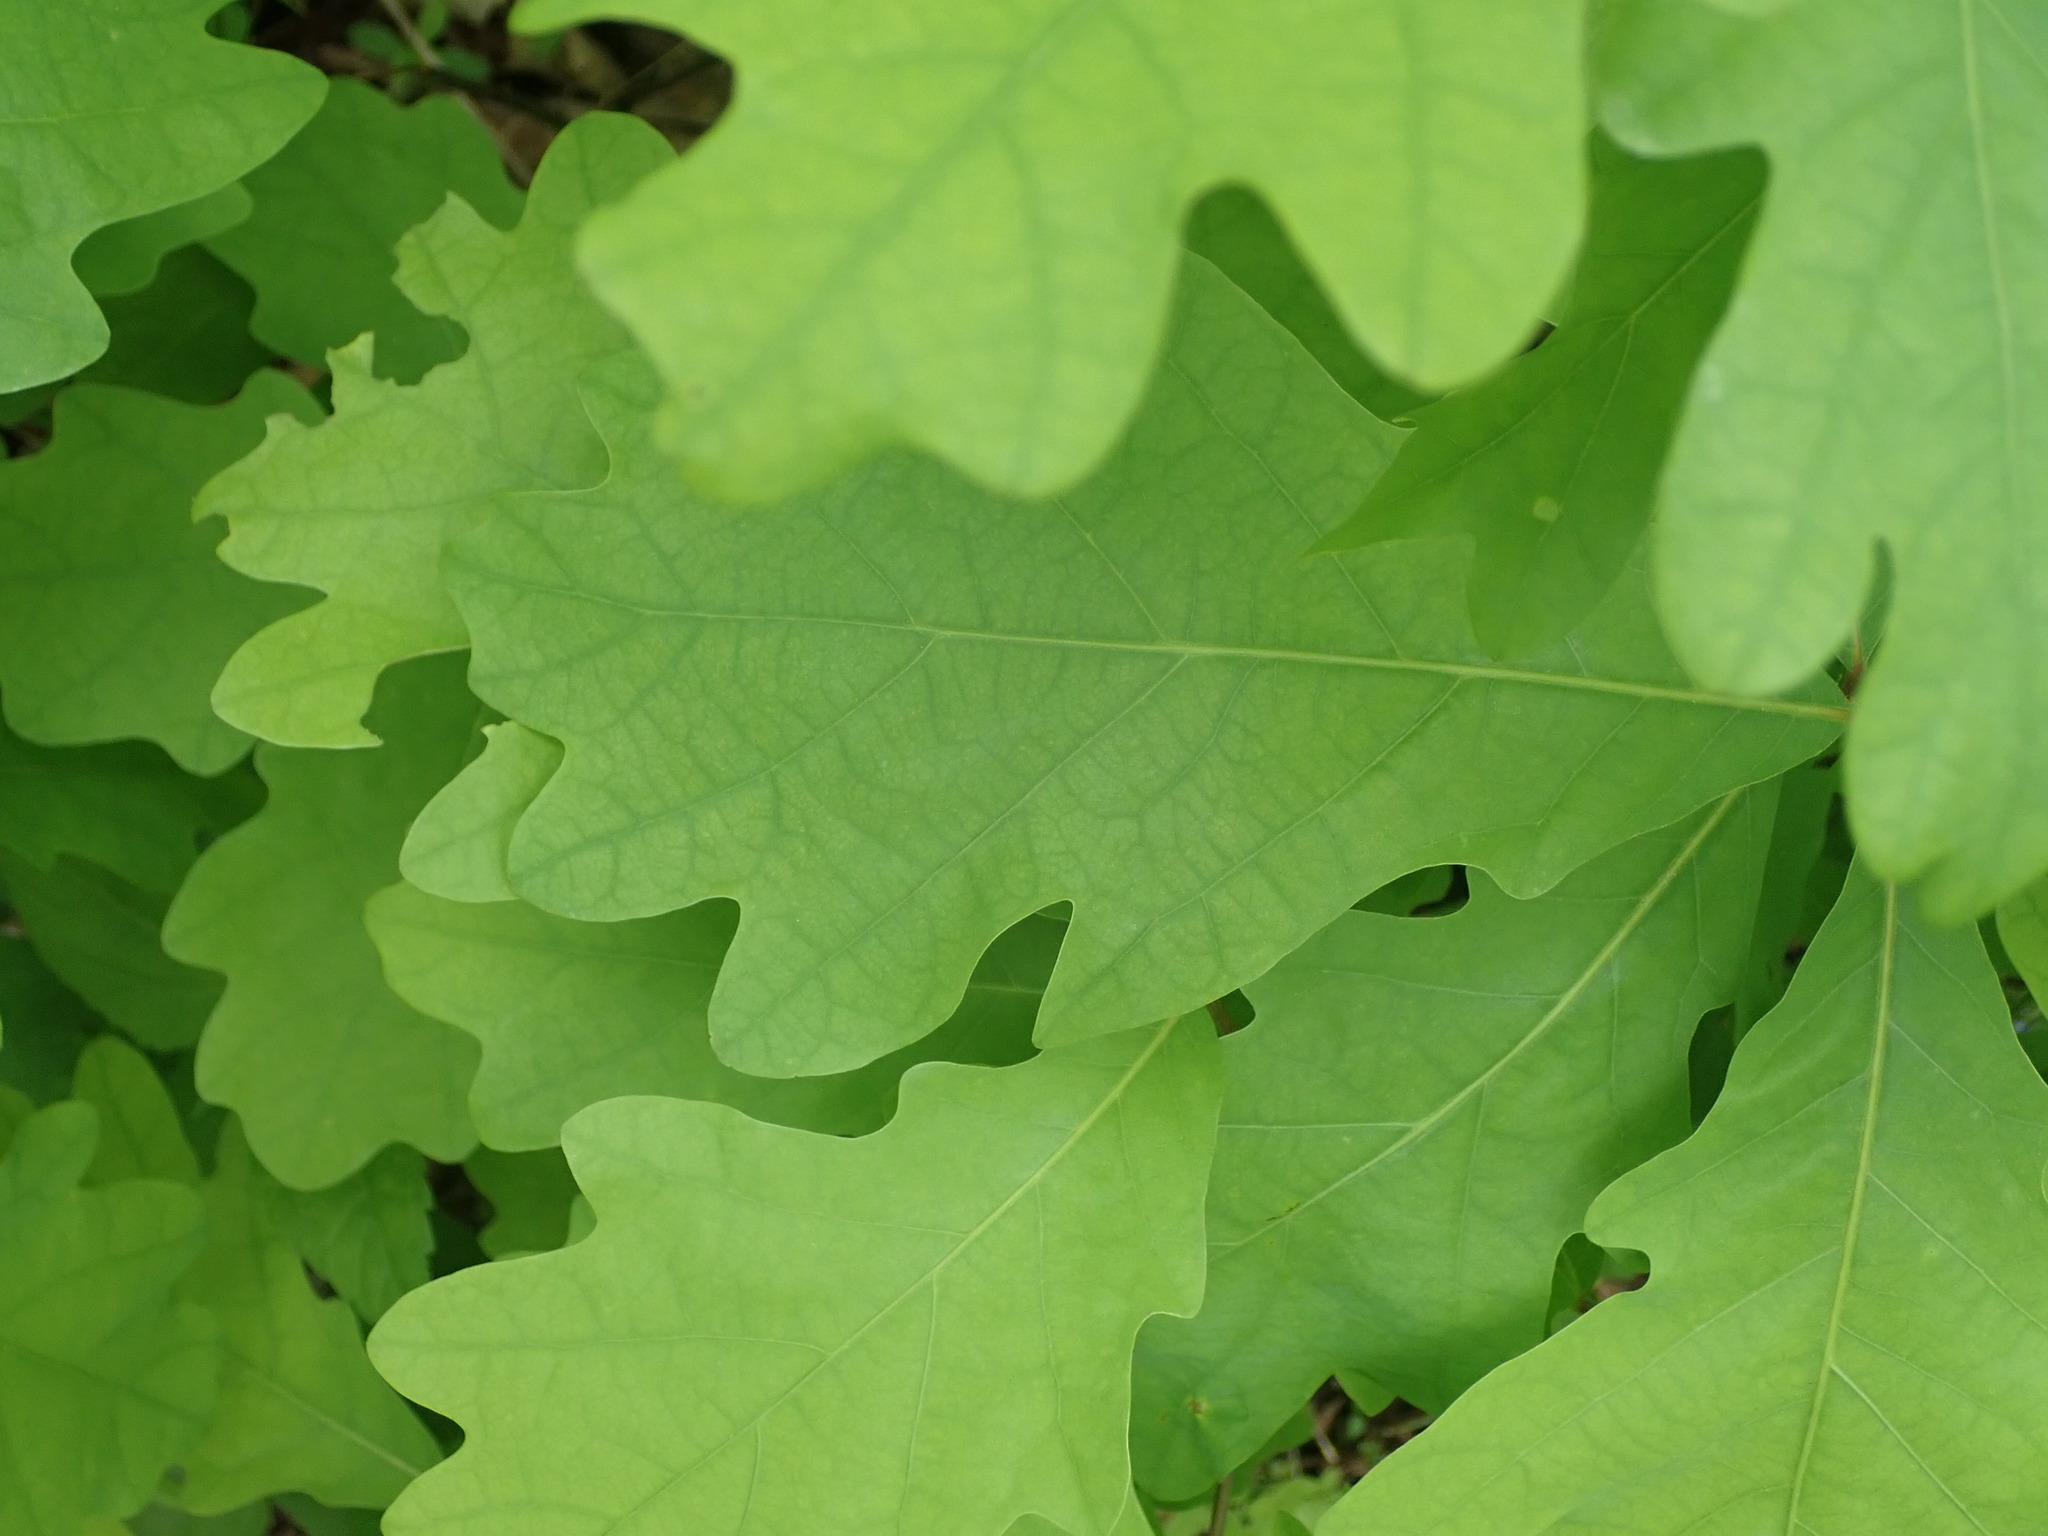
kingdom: Plantae
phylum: Tracheophyta
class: Magnoliopsida
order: Fagales
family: Fagaceae
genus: Quercus
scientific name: Quercus alba
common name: White oak
